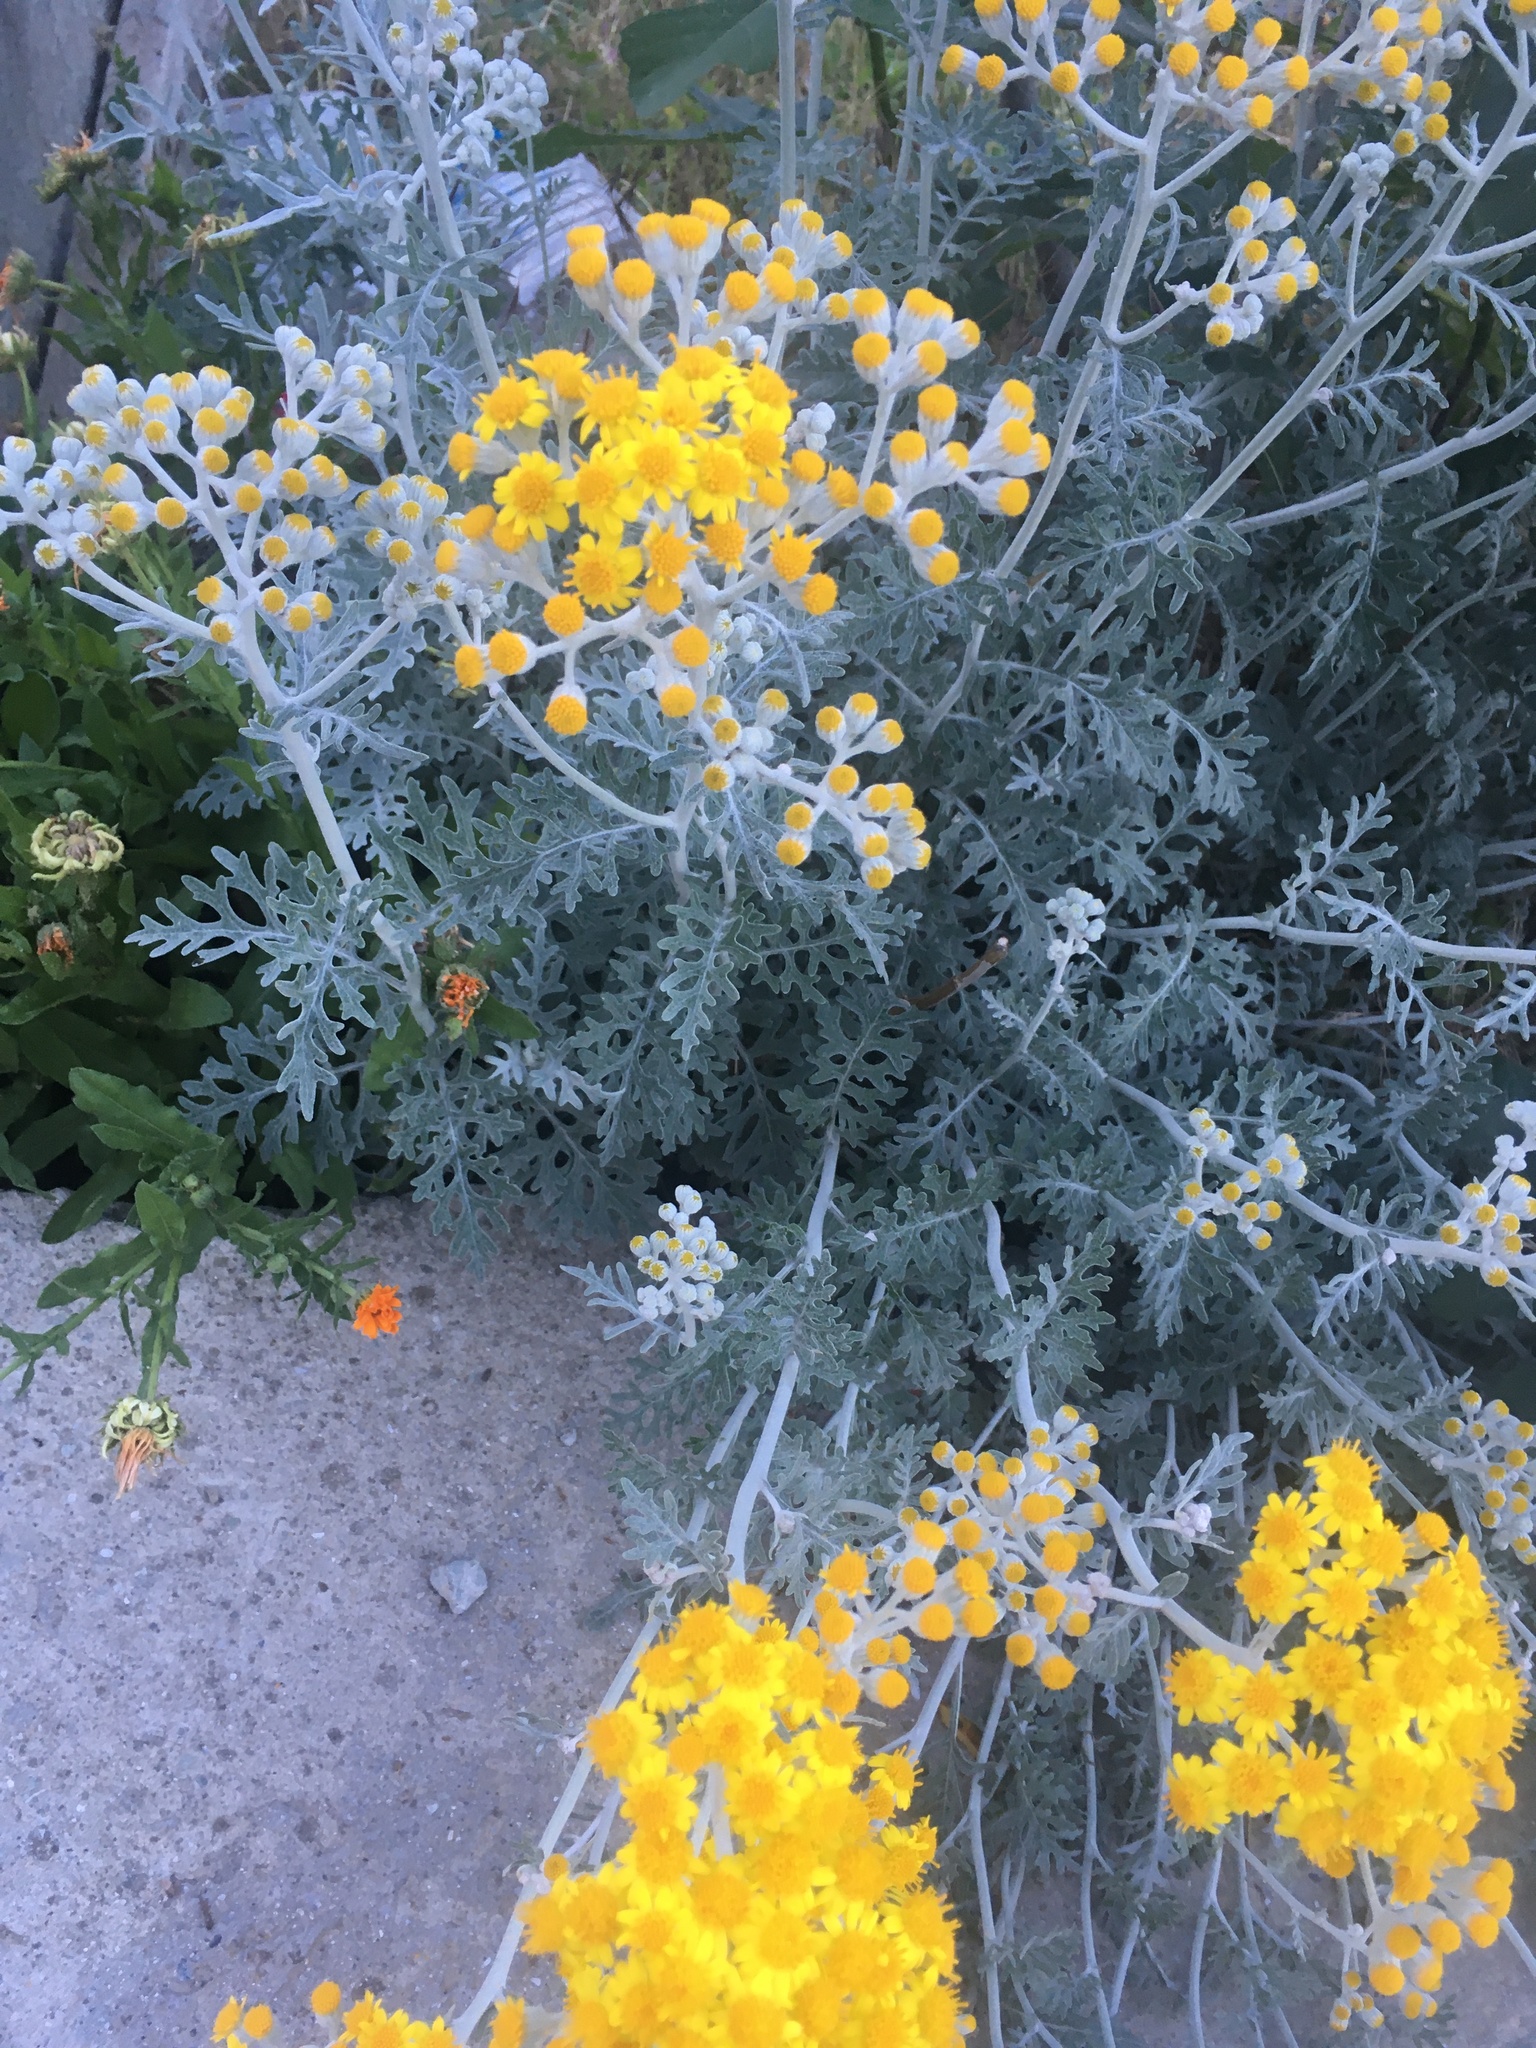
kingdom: Plantae
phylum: Tracheophyta
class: Magnoliopsida
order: Asterales
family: Asteraceae
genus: Jacobaea
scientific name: Jacobaea maritima
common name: Silver ragwort
